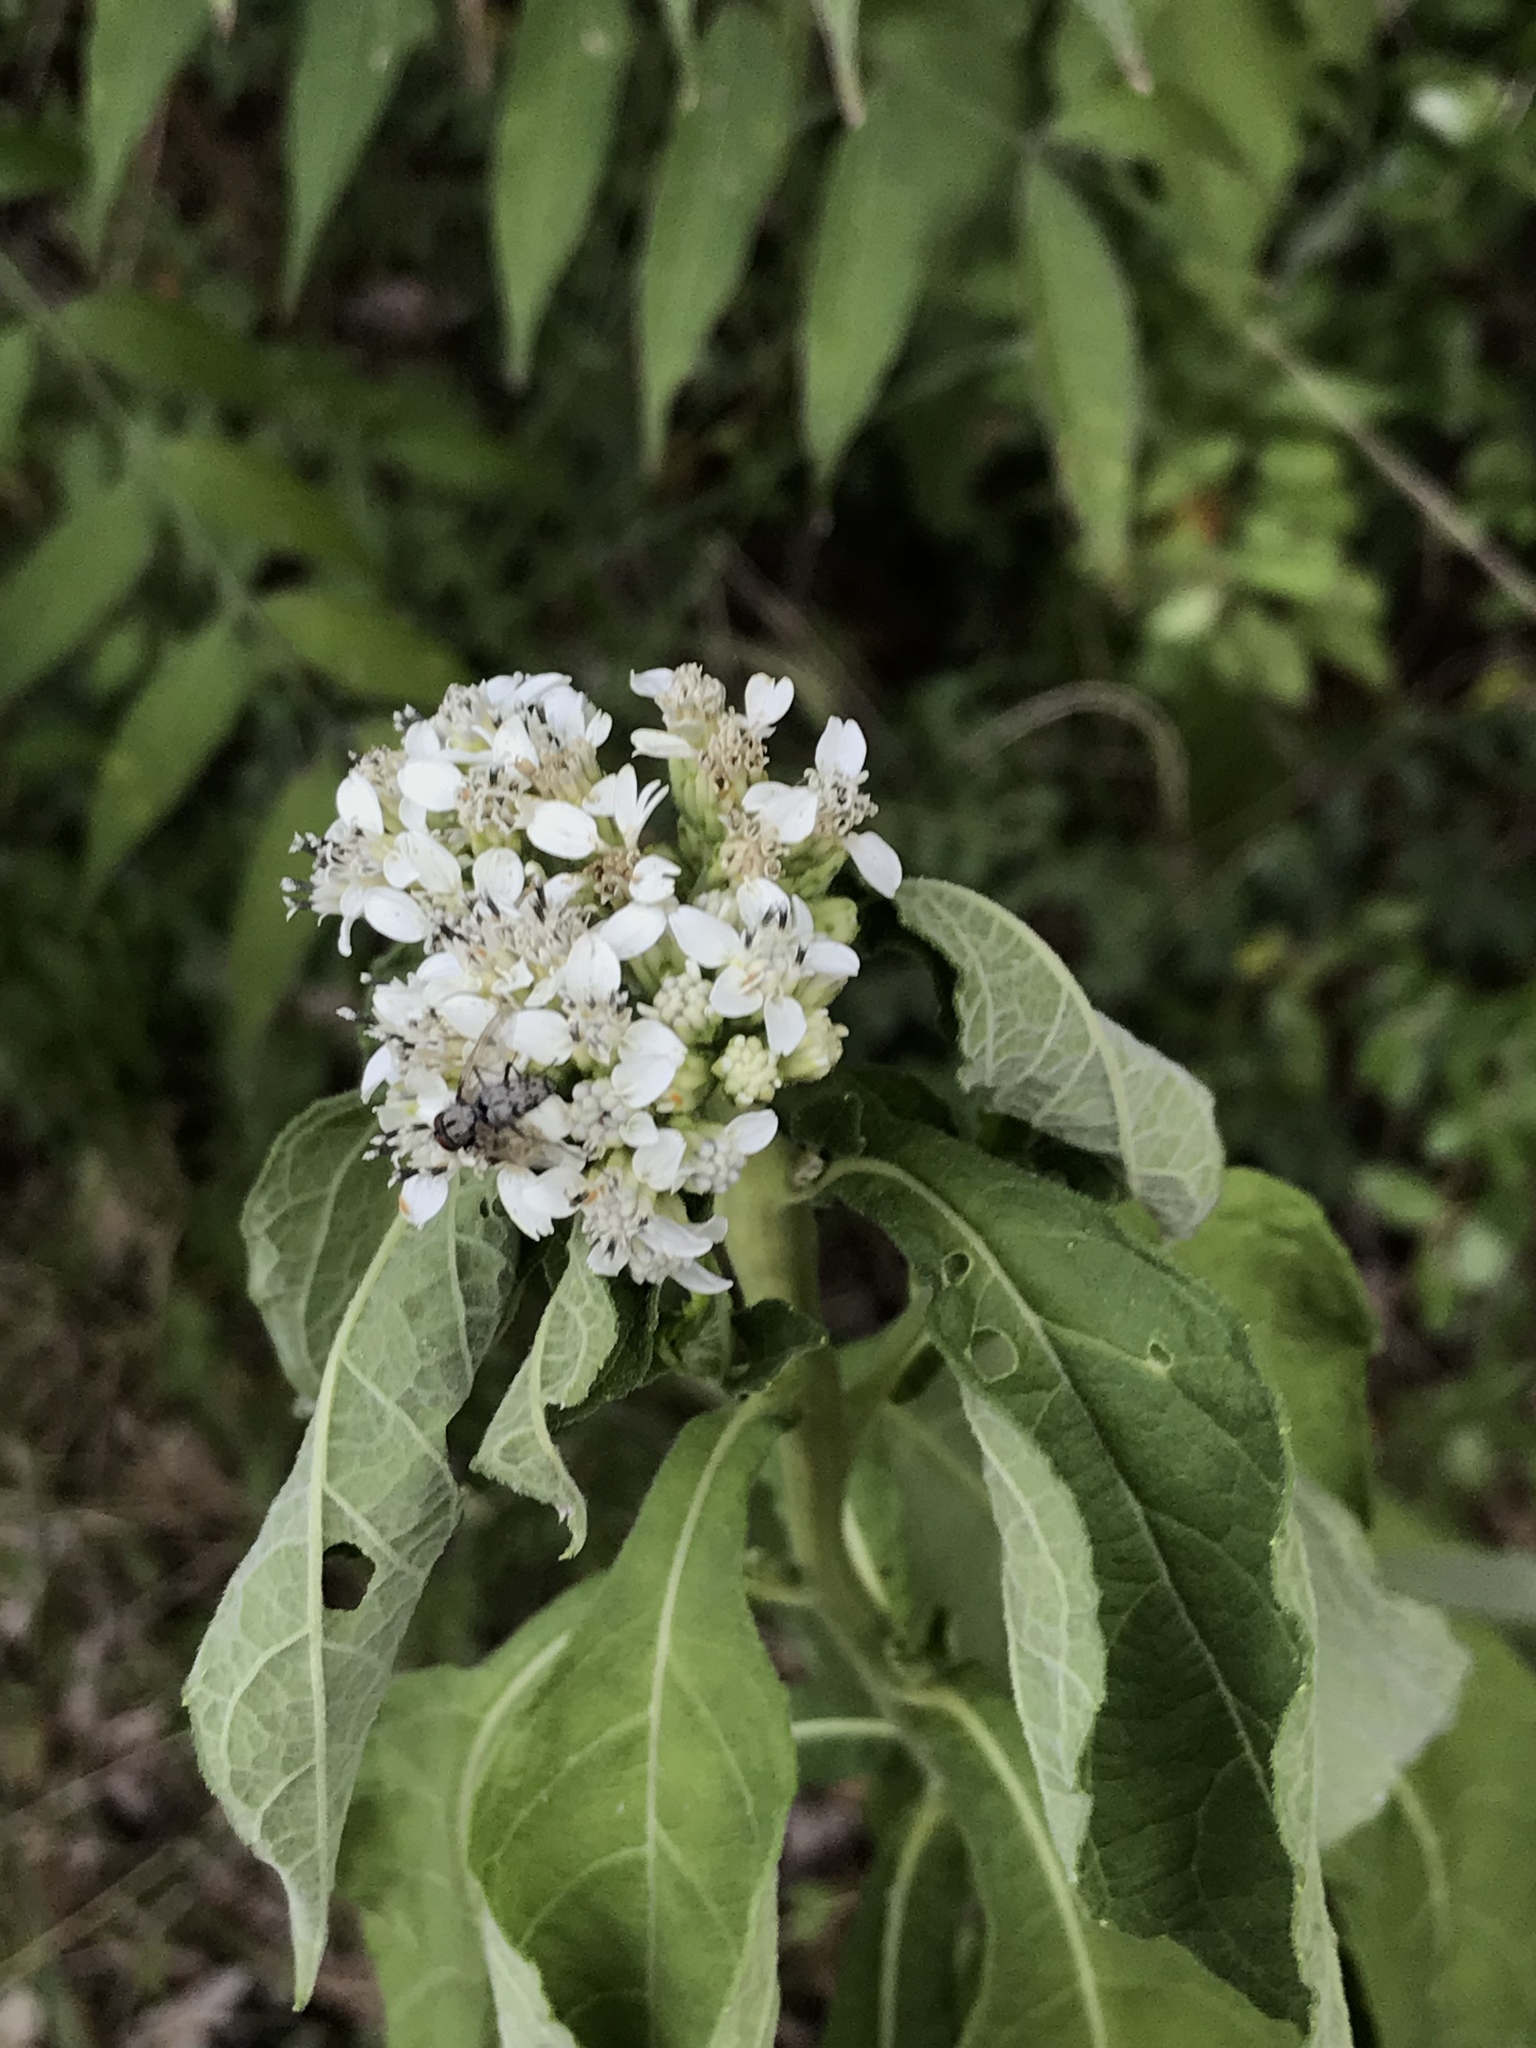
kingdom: Plantae
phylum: Tracheophyta
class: Magnoliopsida
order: Asterales
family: Asteraceae
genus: Verbesina
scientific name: Verbesina virginica
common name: Frostweed
